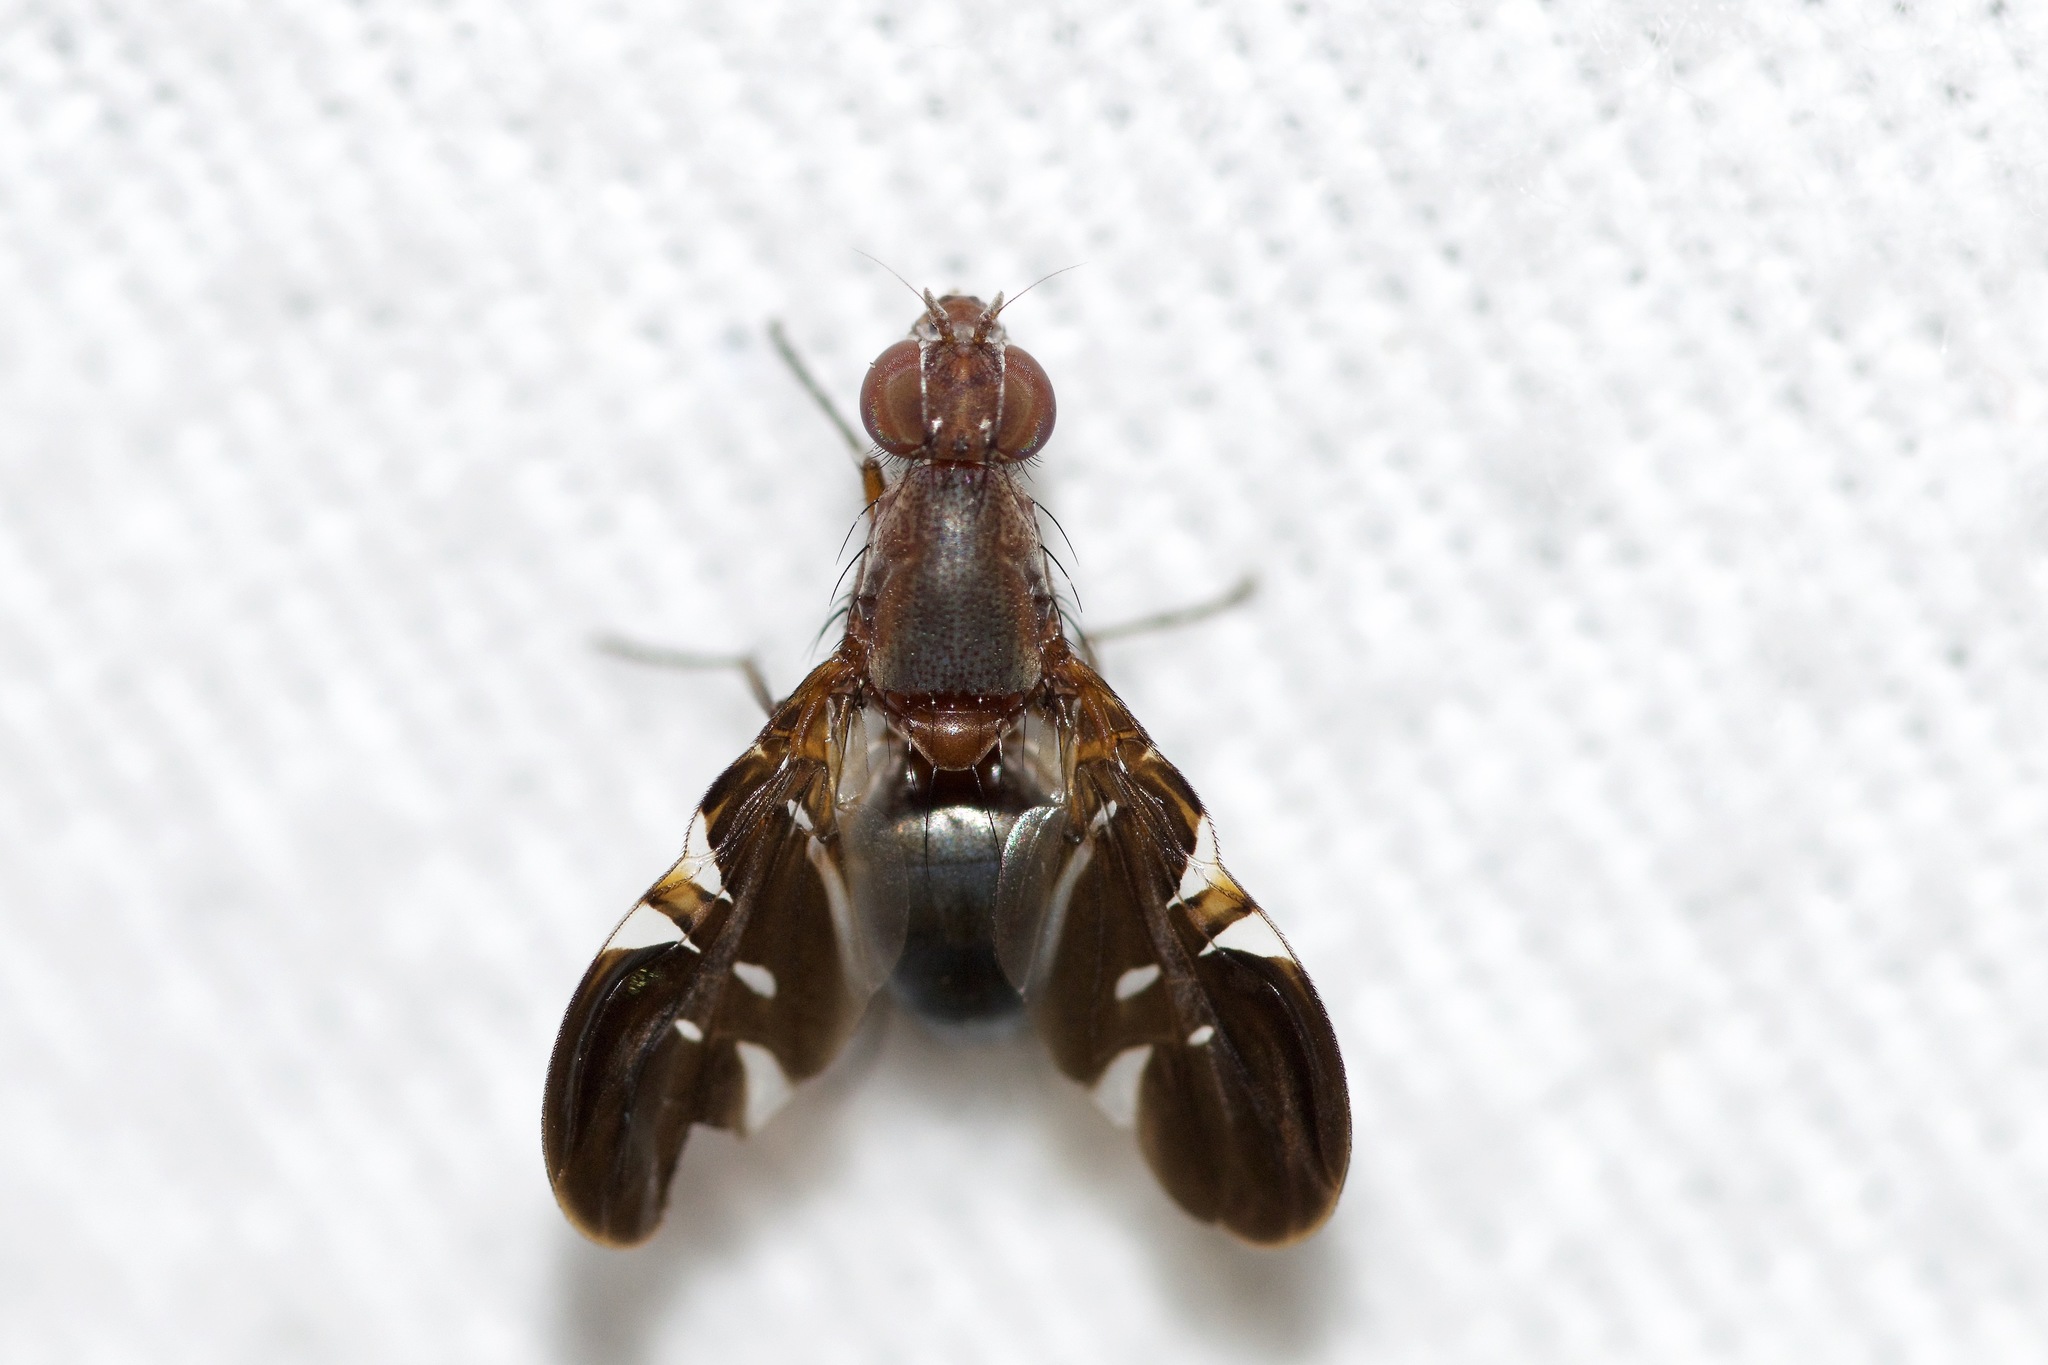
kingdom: Animalia
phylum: Arthropoda
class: Insecta
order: Diptera
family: Ulidiidae
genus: Delphinia
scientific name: Delphinia picta
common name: Common picture-winged fly
